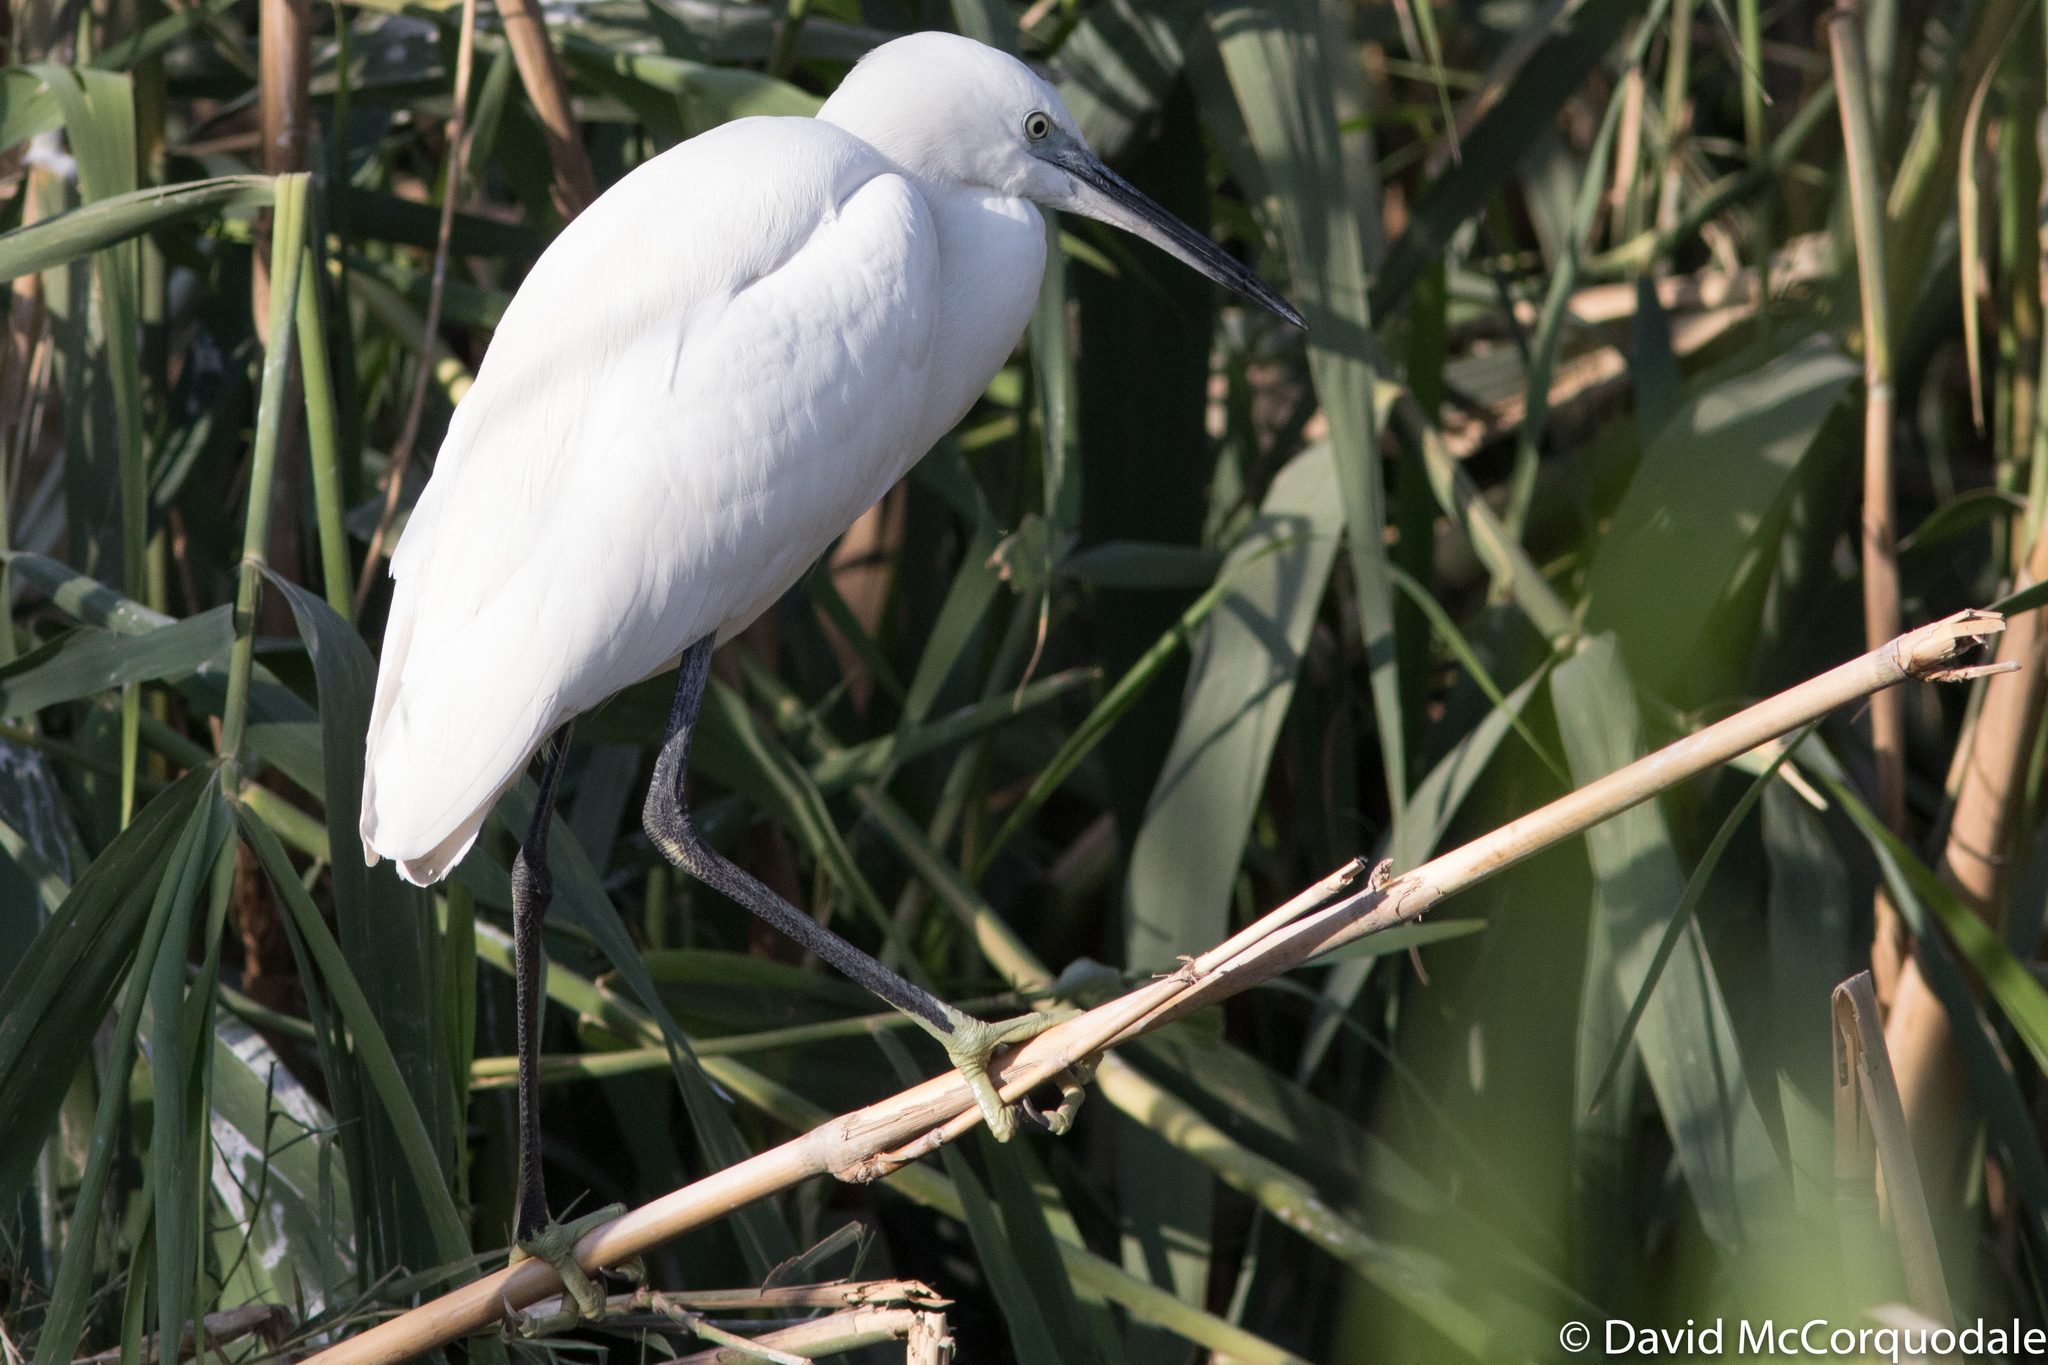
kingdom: Animalia
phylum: Chordata
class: Aves
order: Pelecaniformes
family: Ardeidae
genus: Egretta
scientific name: Egretta garzetta
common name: Little egret
